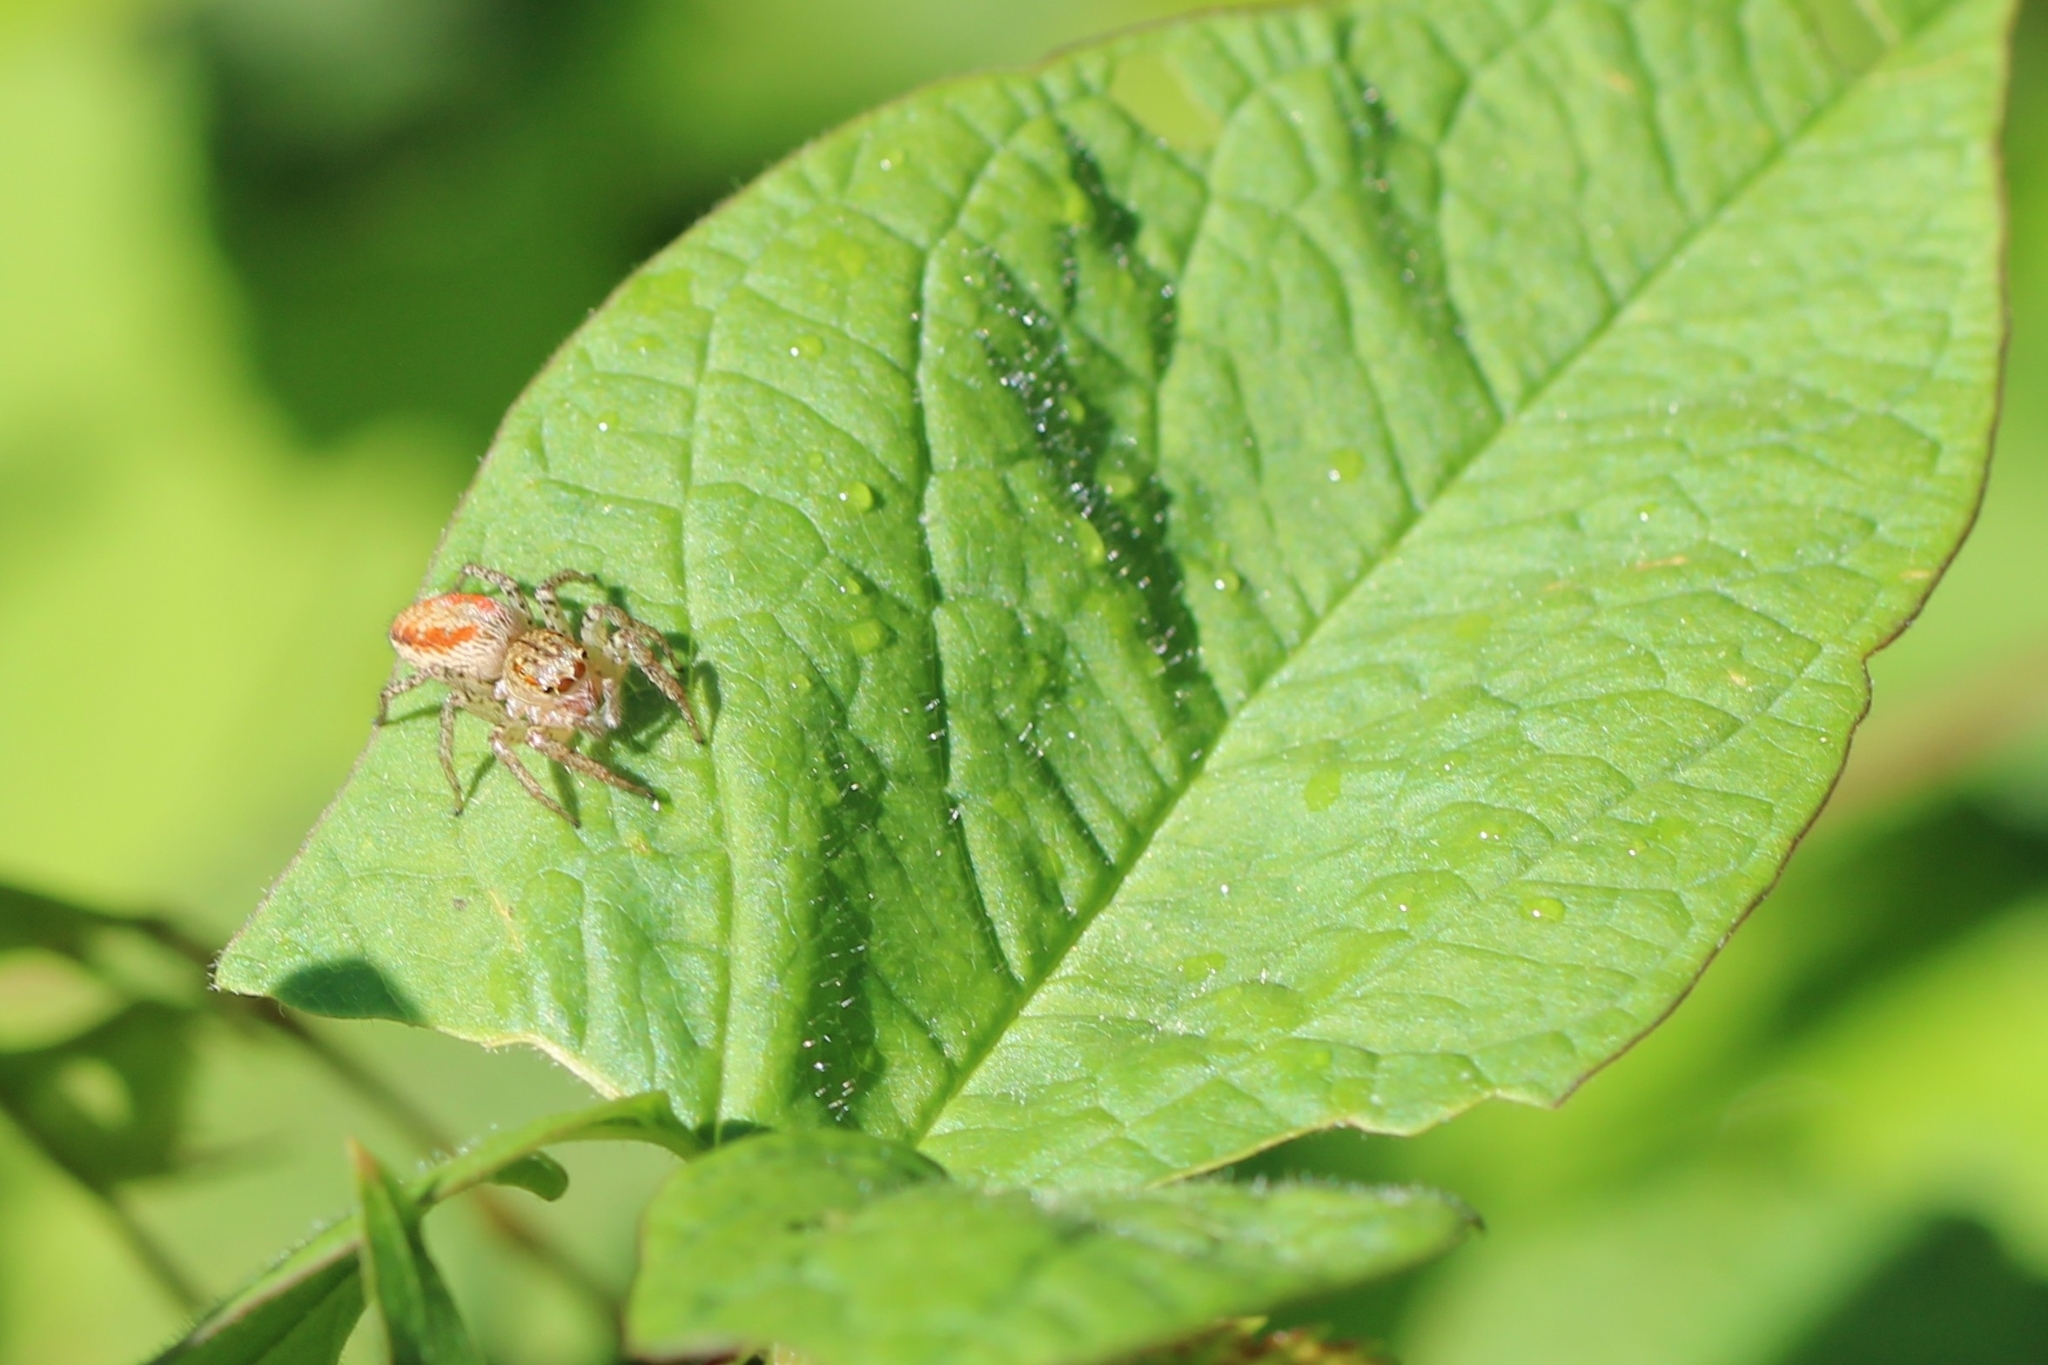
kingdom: Animalia
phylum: Arthropoda
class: Arachnida
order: Araneae
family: Salticidae
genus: Maevia
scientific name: Maevia inclemens
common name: Dimorphic jumper
